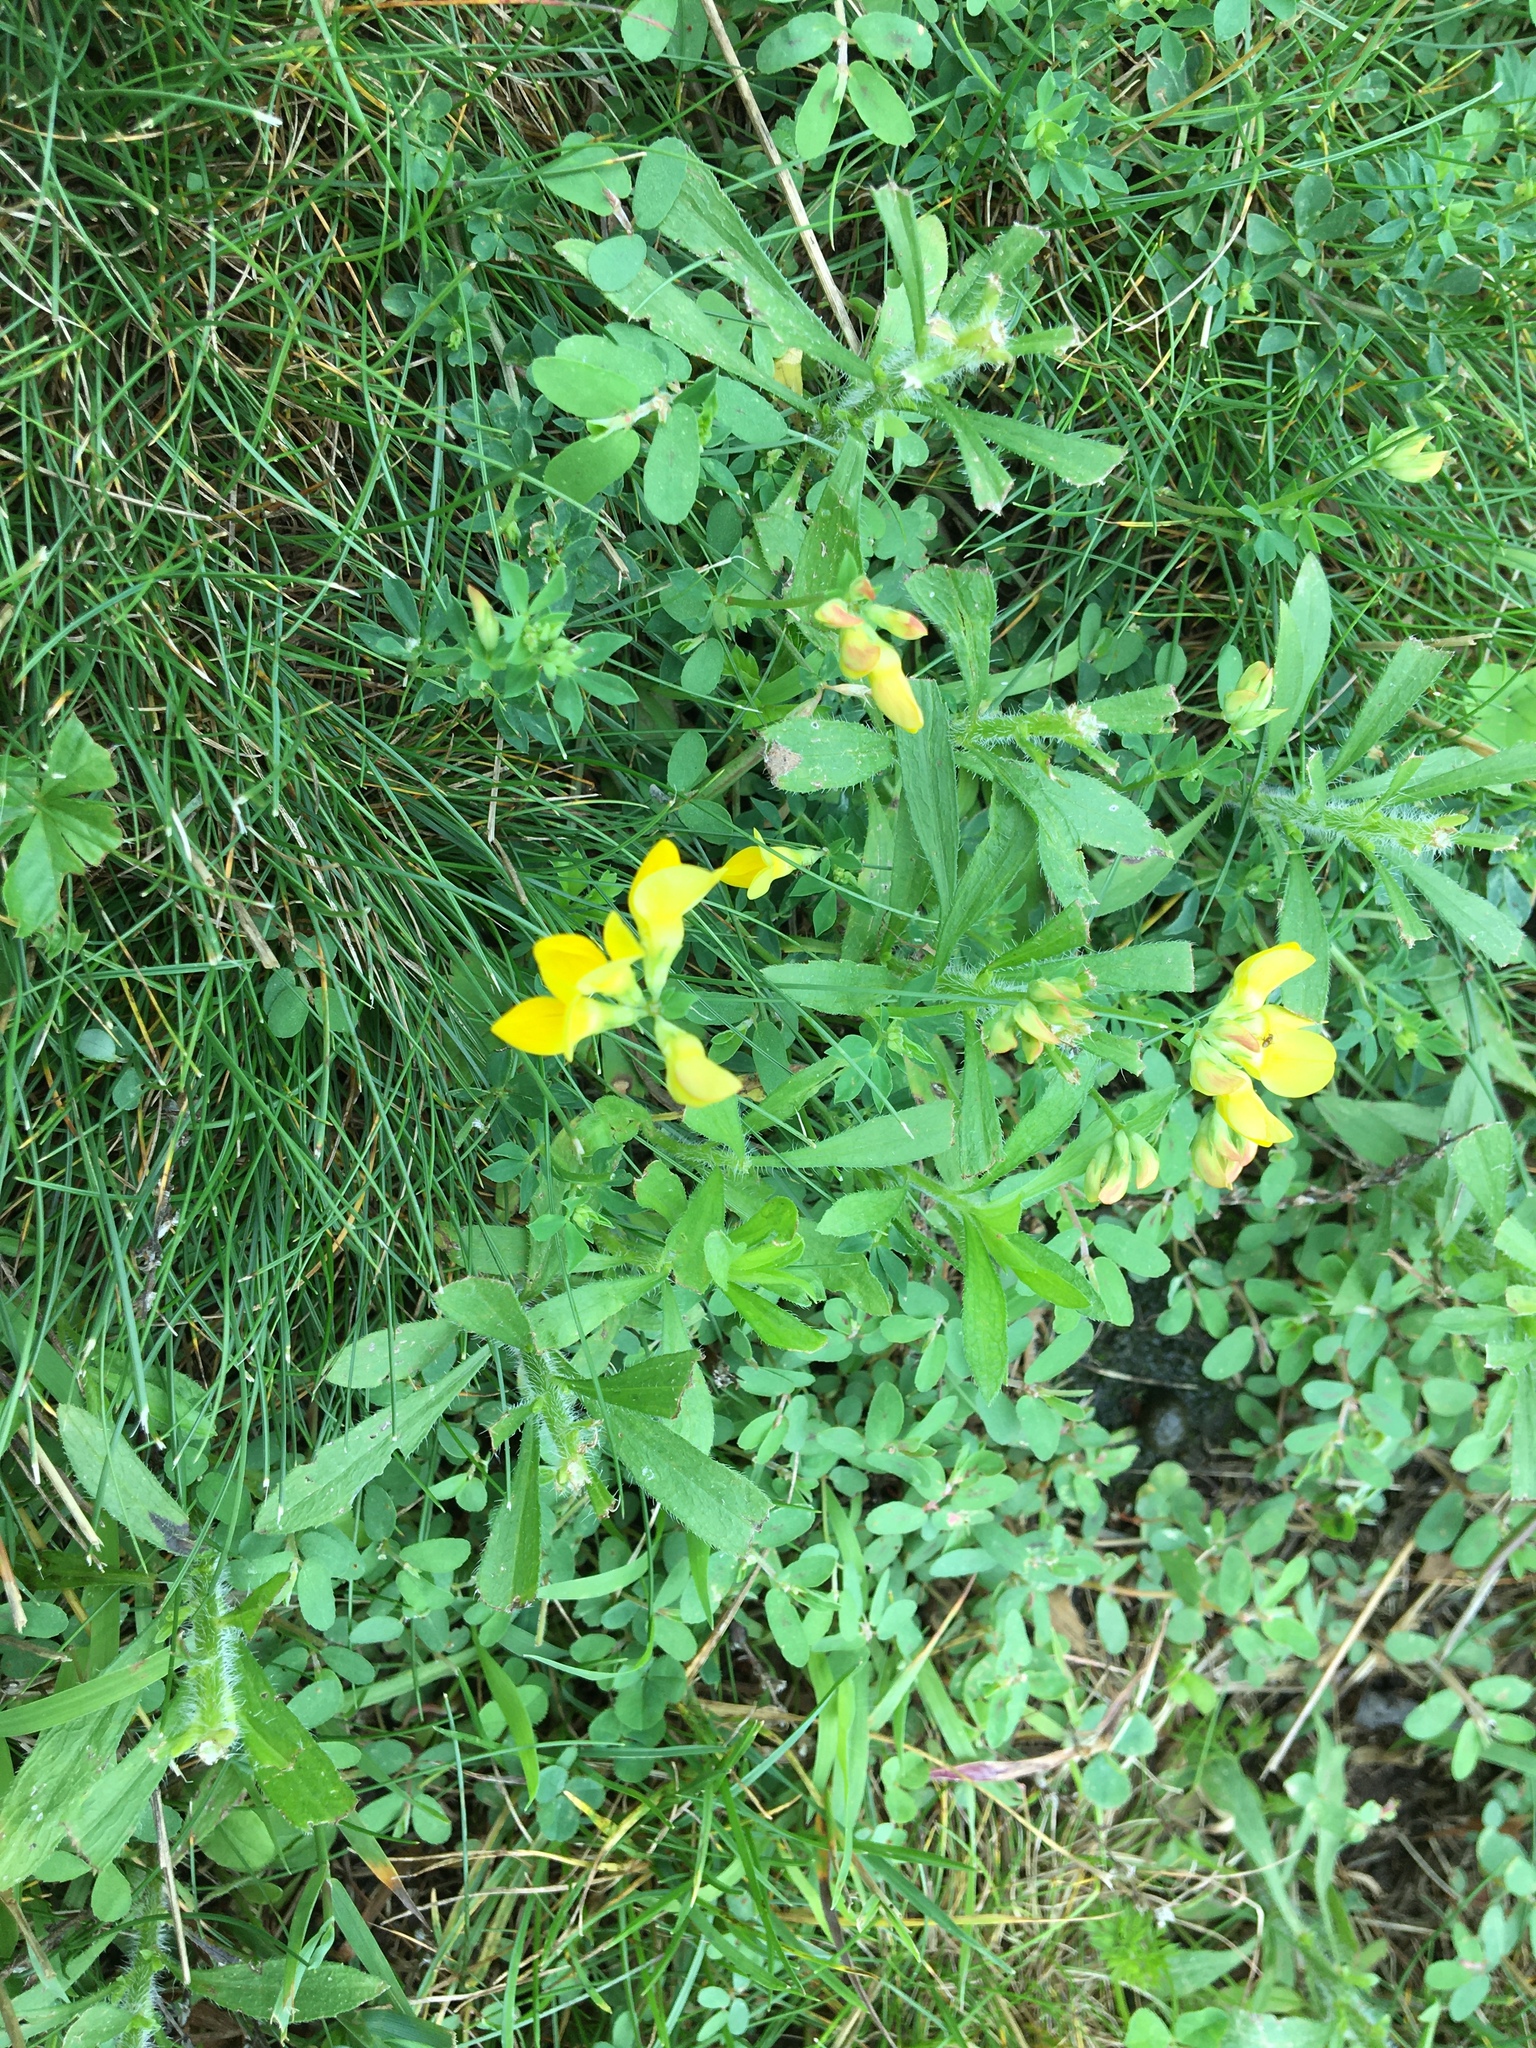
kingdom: Plantae
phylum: Tracheophyta
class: Magnoliopsida
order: Fabales
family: Fabaceae
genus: Lotus
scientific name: Lotus corniculatus
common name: Common bird's-foot-trefoil
